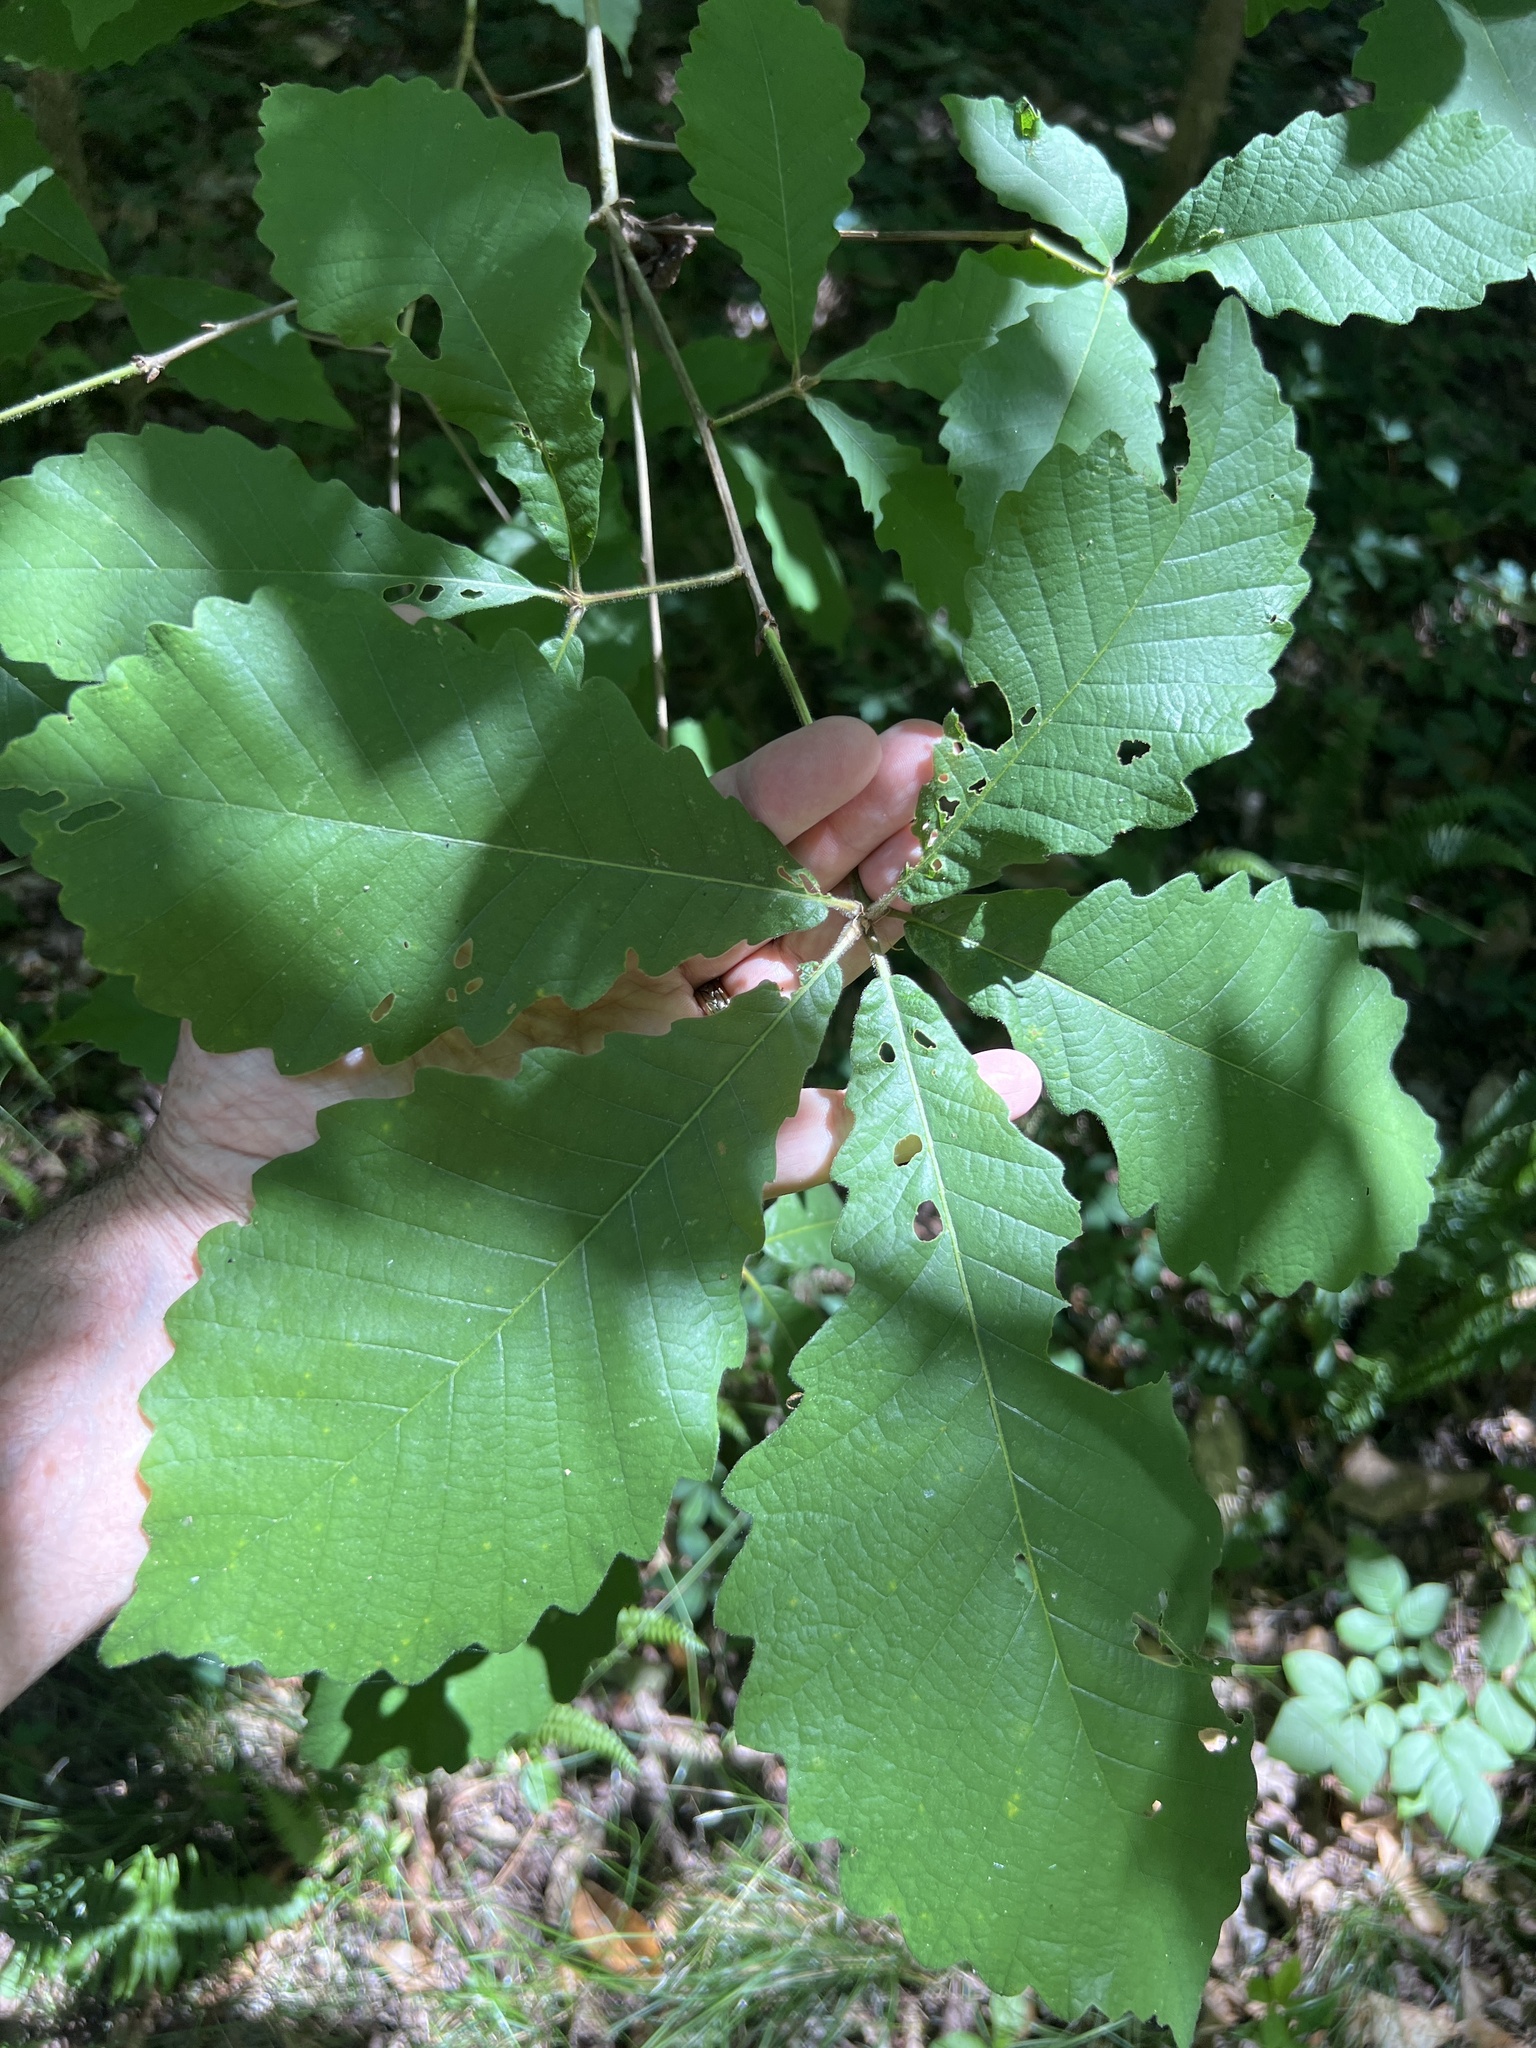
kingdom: Plantae
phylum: Tracheophyta
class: Magnoliopsida
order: Fagales
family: Fagaceae
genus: Quercus
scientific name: Quercus michauxii
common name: Swamp chestnut oak
